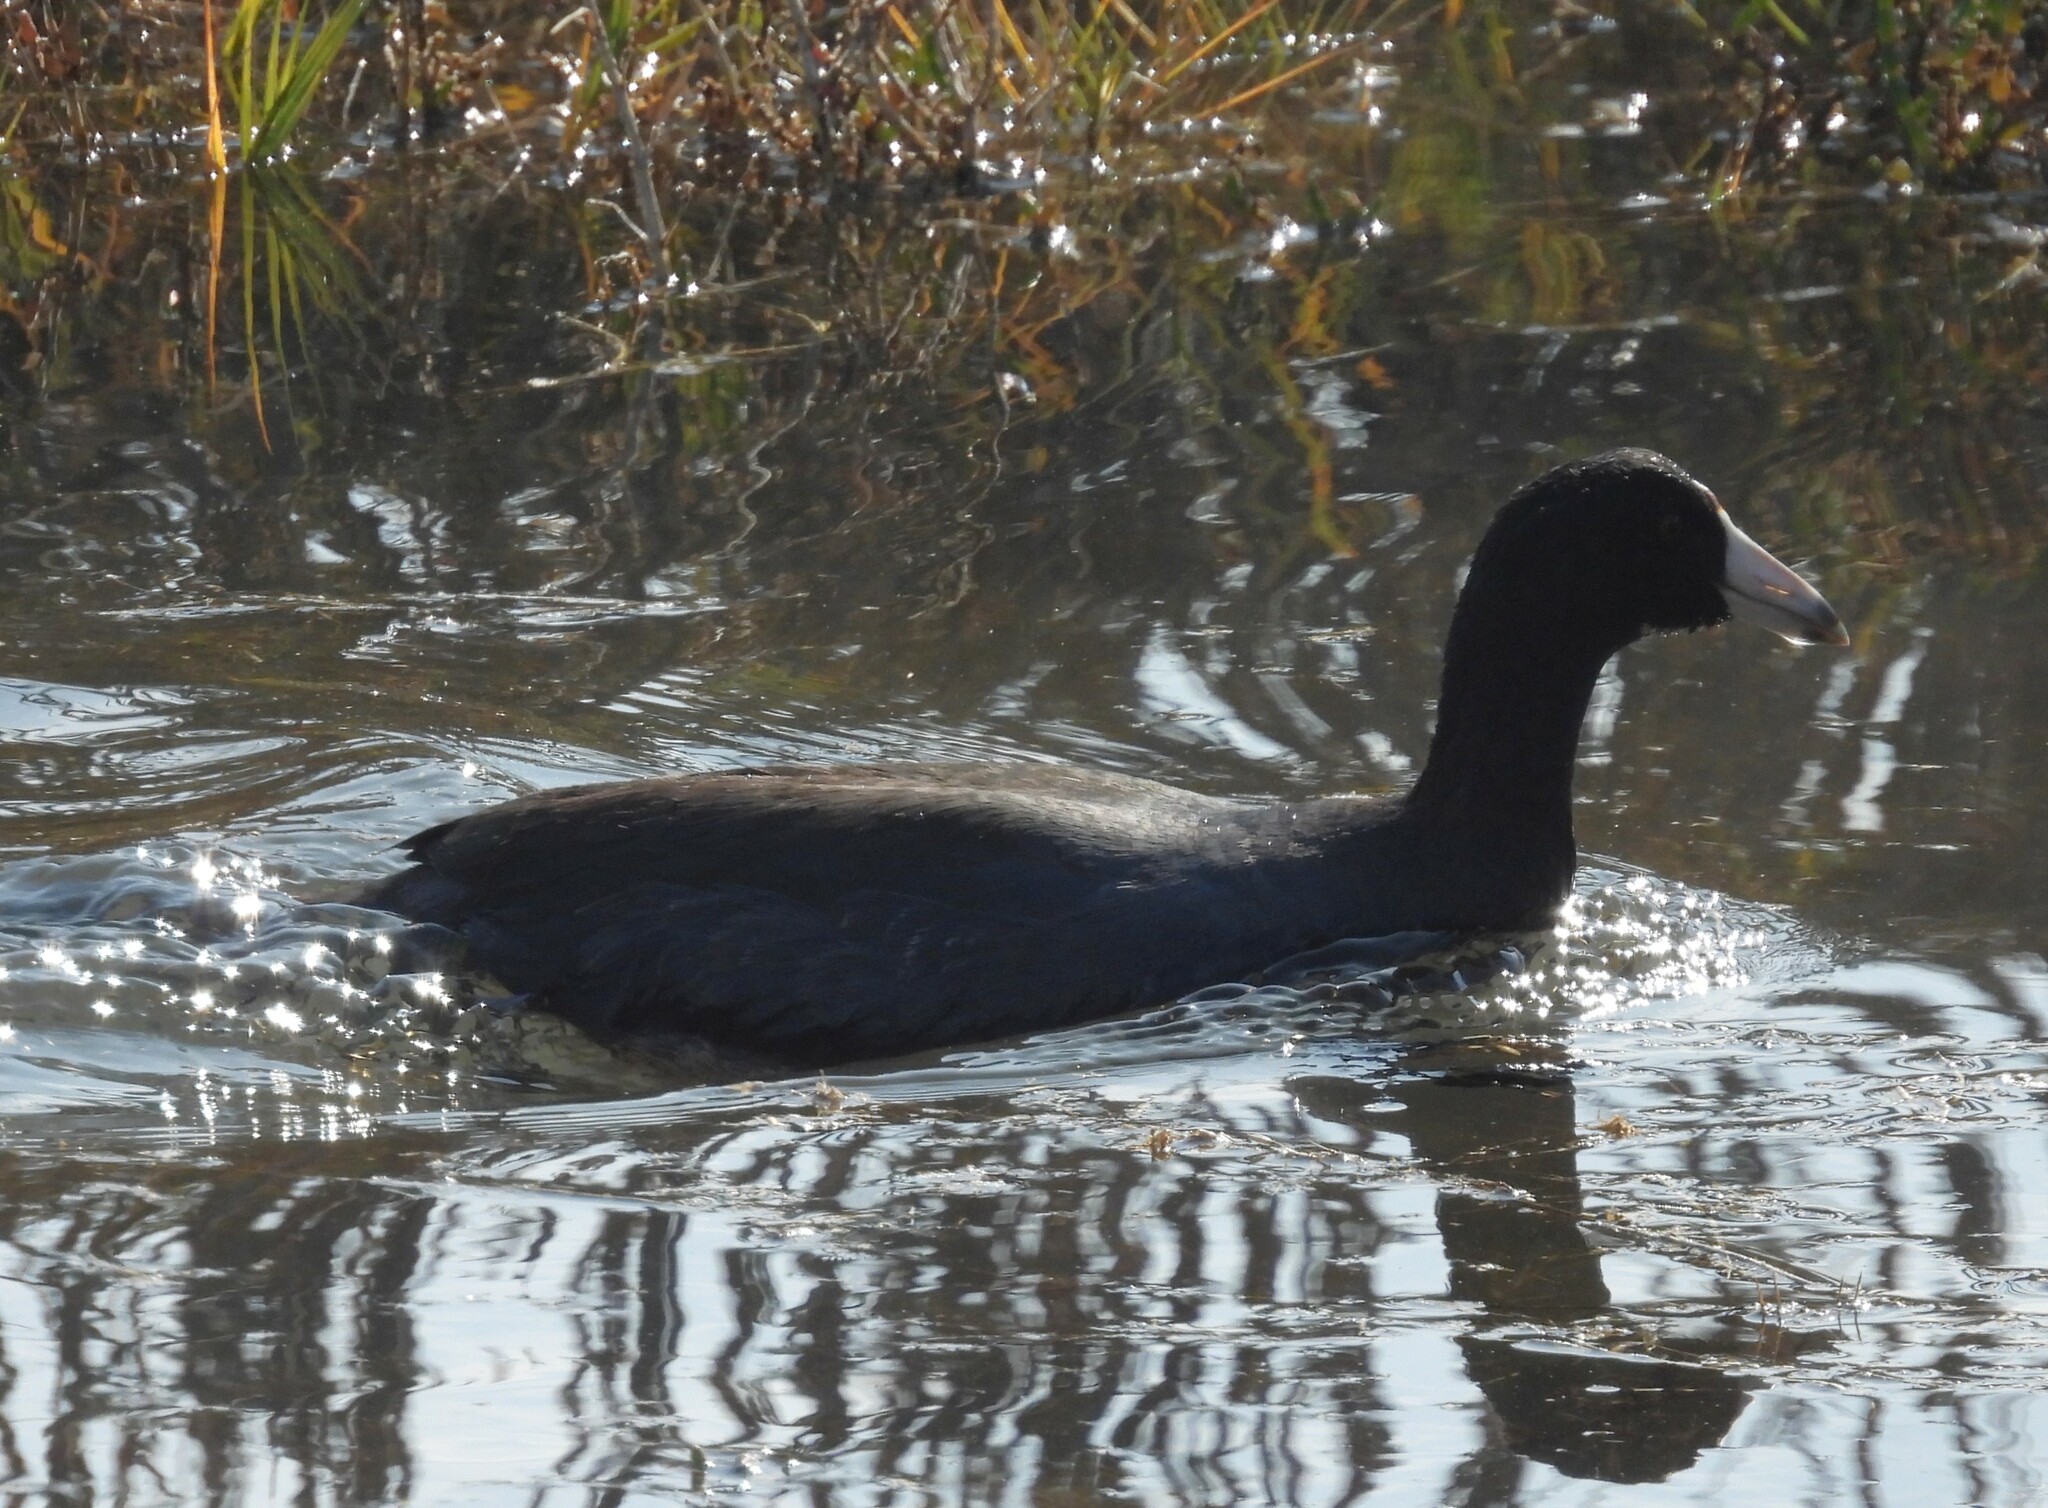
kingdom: Animalia
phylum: Chordata
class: Aves
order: Gruiformes
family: Rallidae
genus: Fulica
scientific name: Fulica americana
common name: American coot
